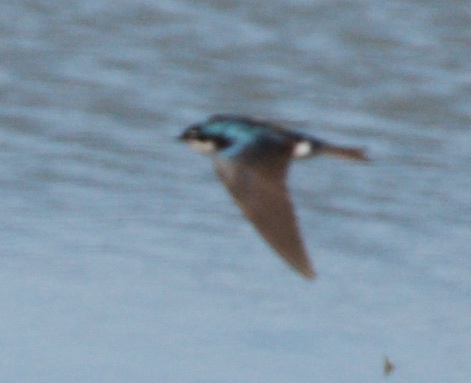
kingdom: Animalia
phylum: Chordata
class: Aves
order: Passeriformes
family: Hirundinidae
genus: Tachycineta
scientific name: Tachycineta bicolor
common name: Tree swallow
